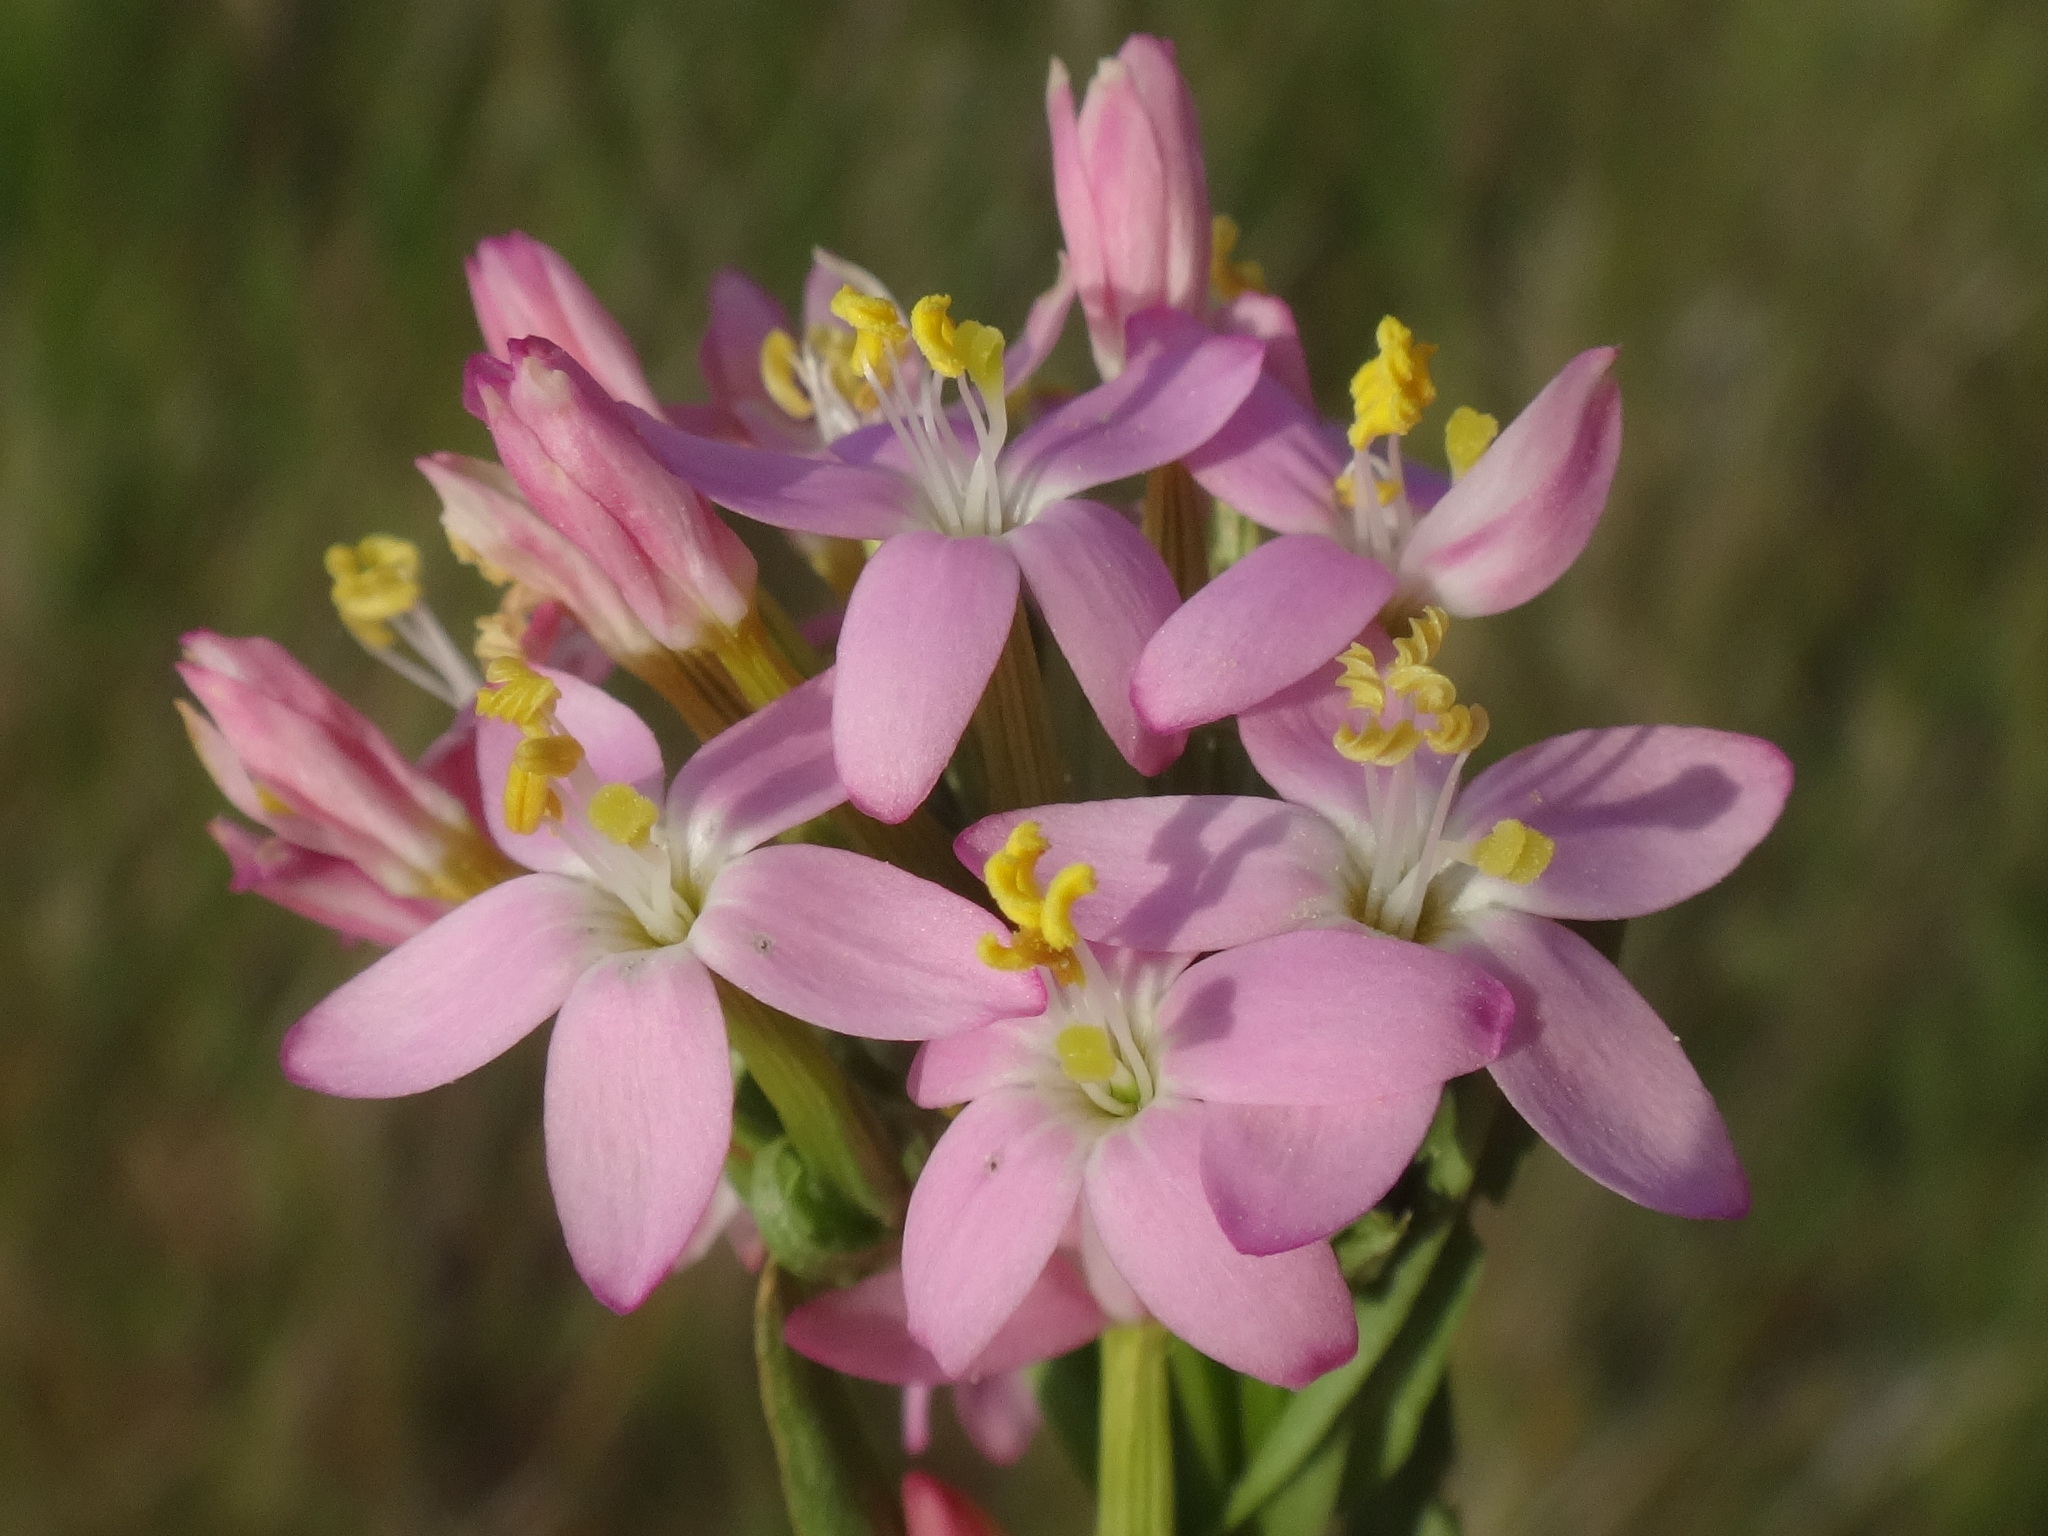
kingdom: Plantae
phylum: Tracheophyta
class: Magnoliopsida
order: Gentianales
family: Gentianaceae
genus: Centaurium
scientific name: Centaurium erythraea
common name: Common centaury
